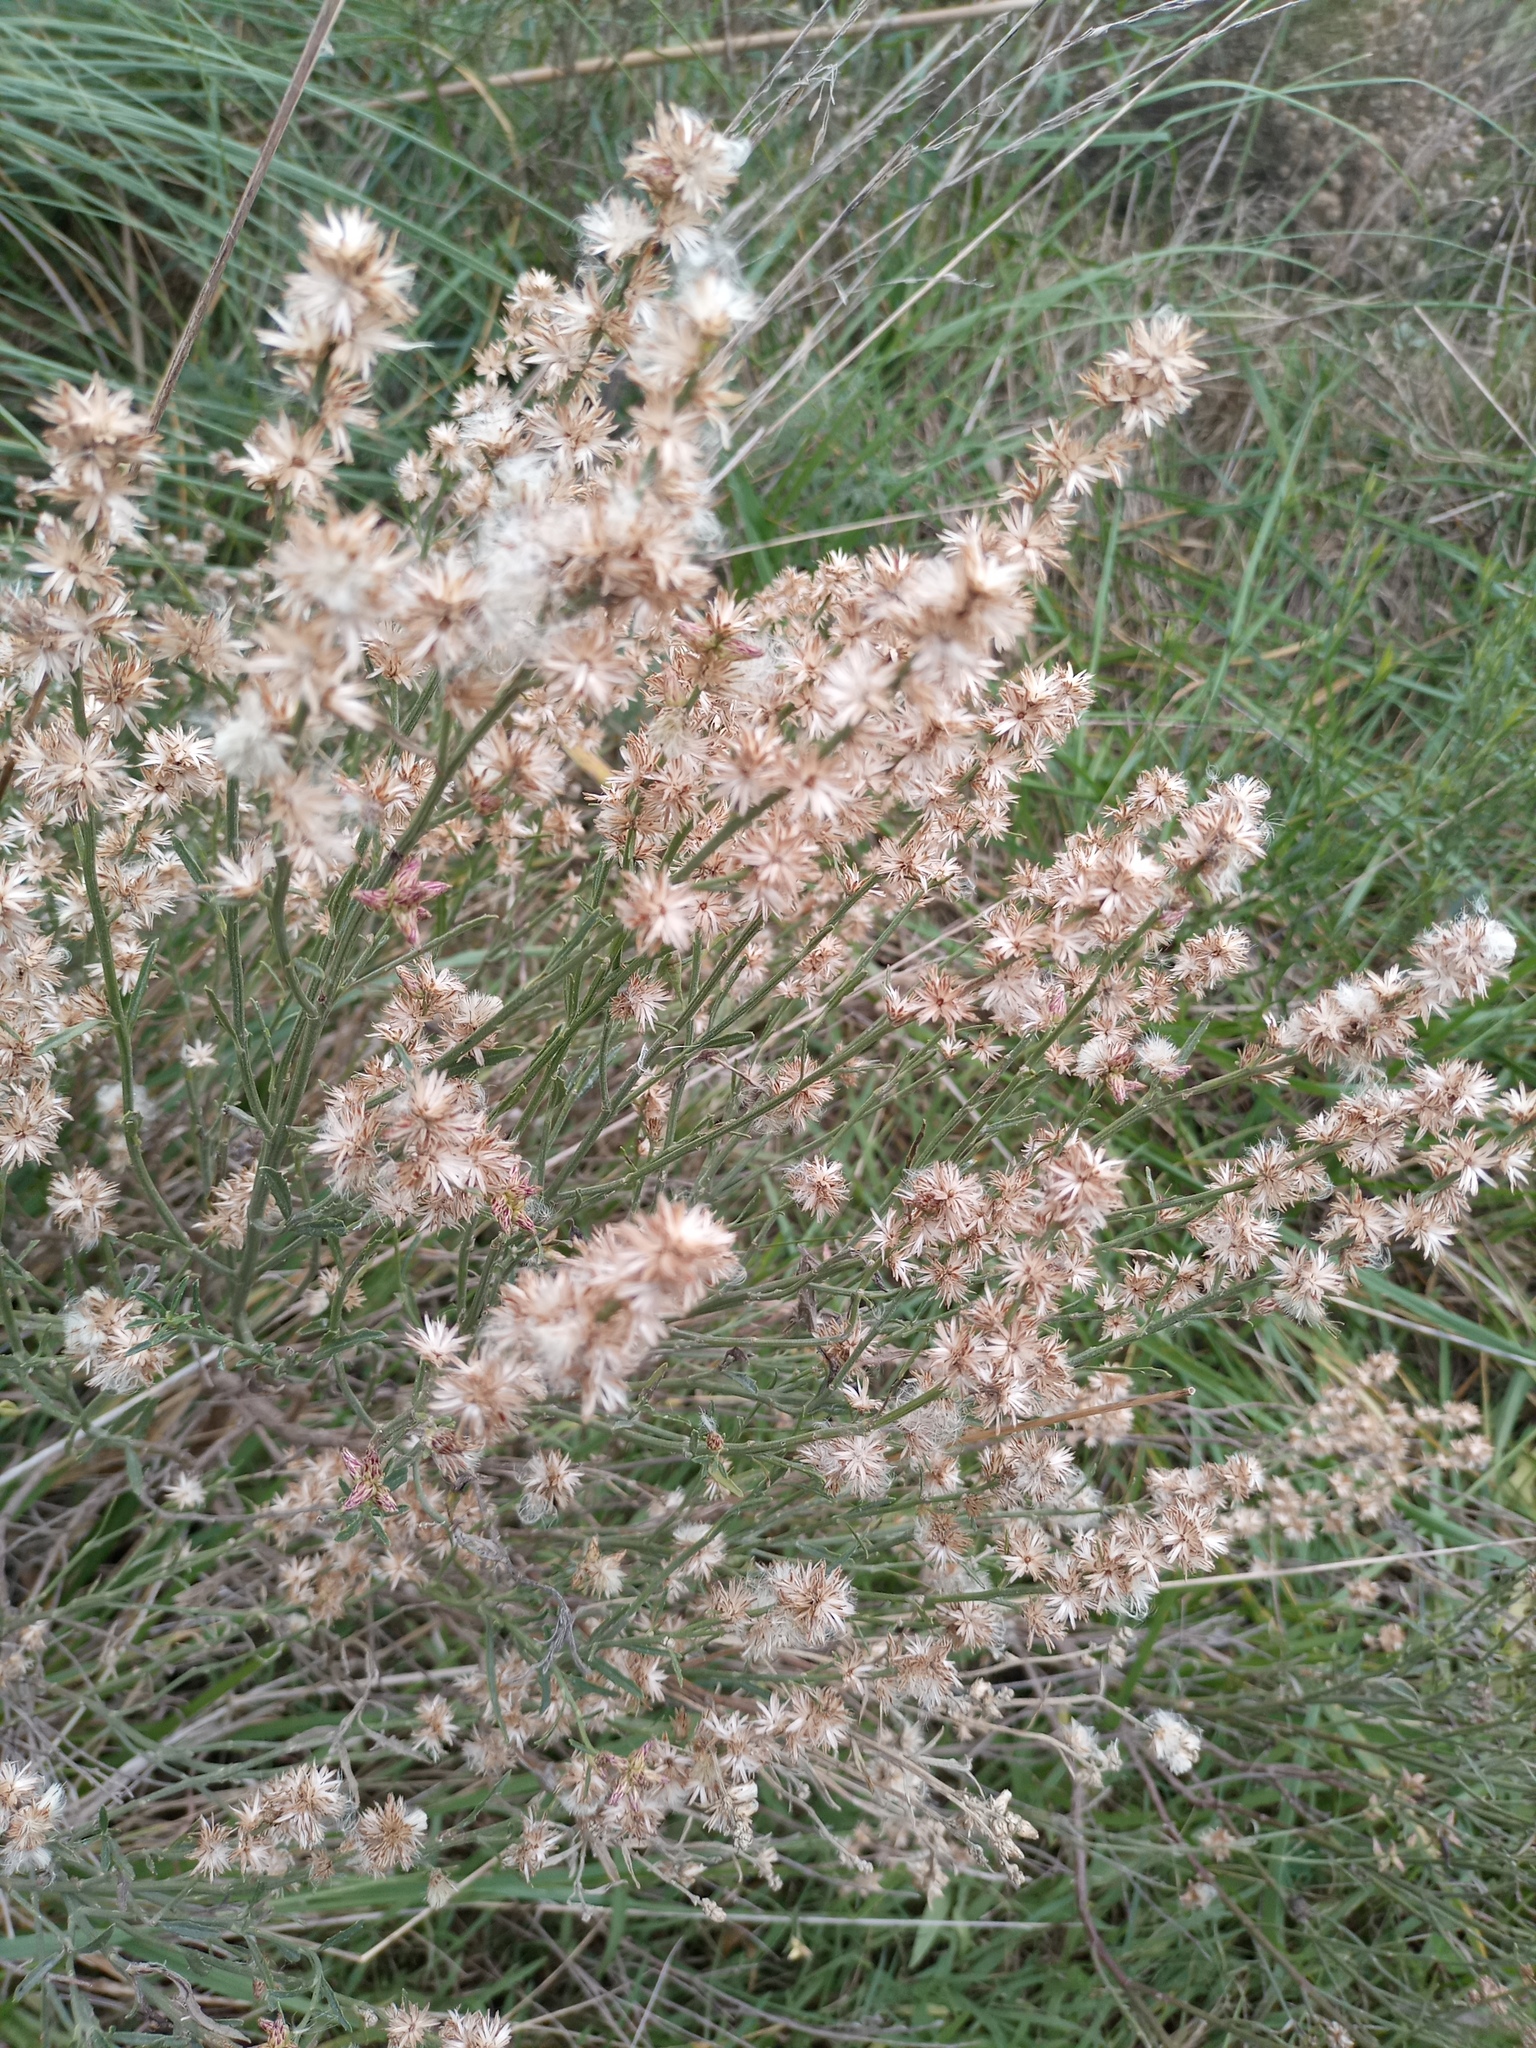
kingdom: Plantae
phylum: Tracheophyta
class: Magnoliopsida
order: Asterales
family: Asteraceae
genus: Baccharis
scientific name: Baccharis spicata
